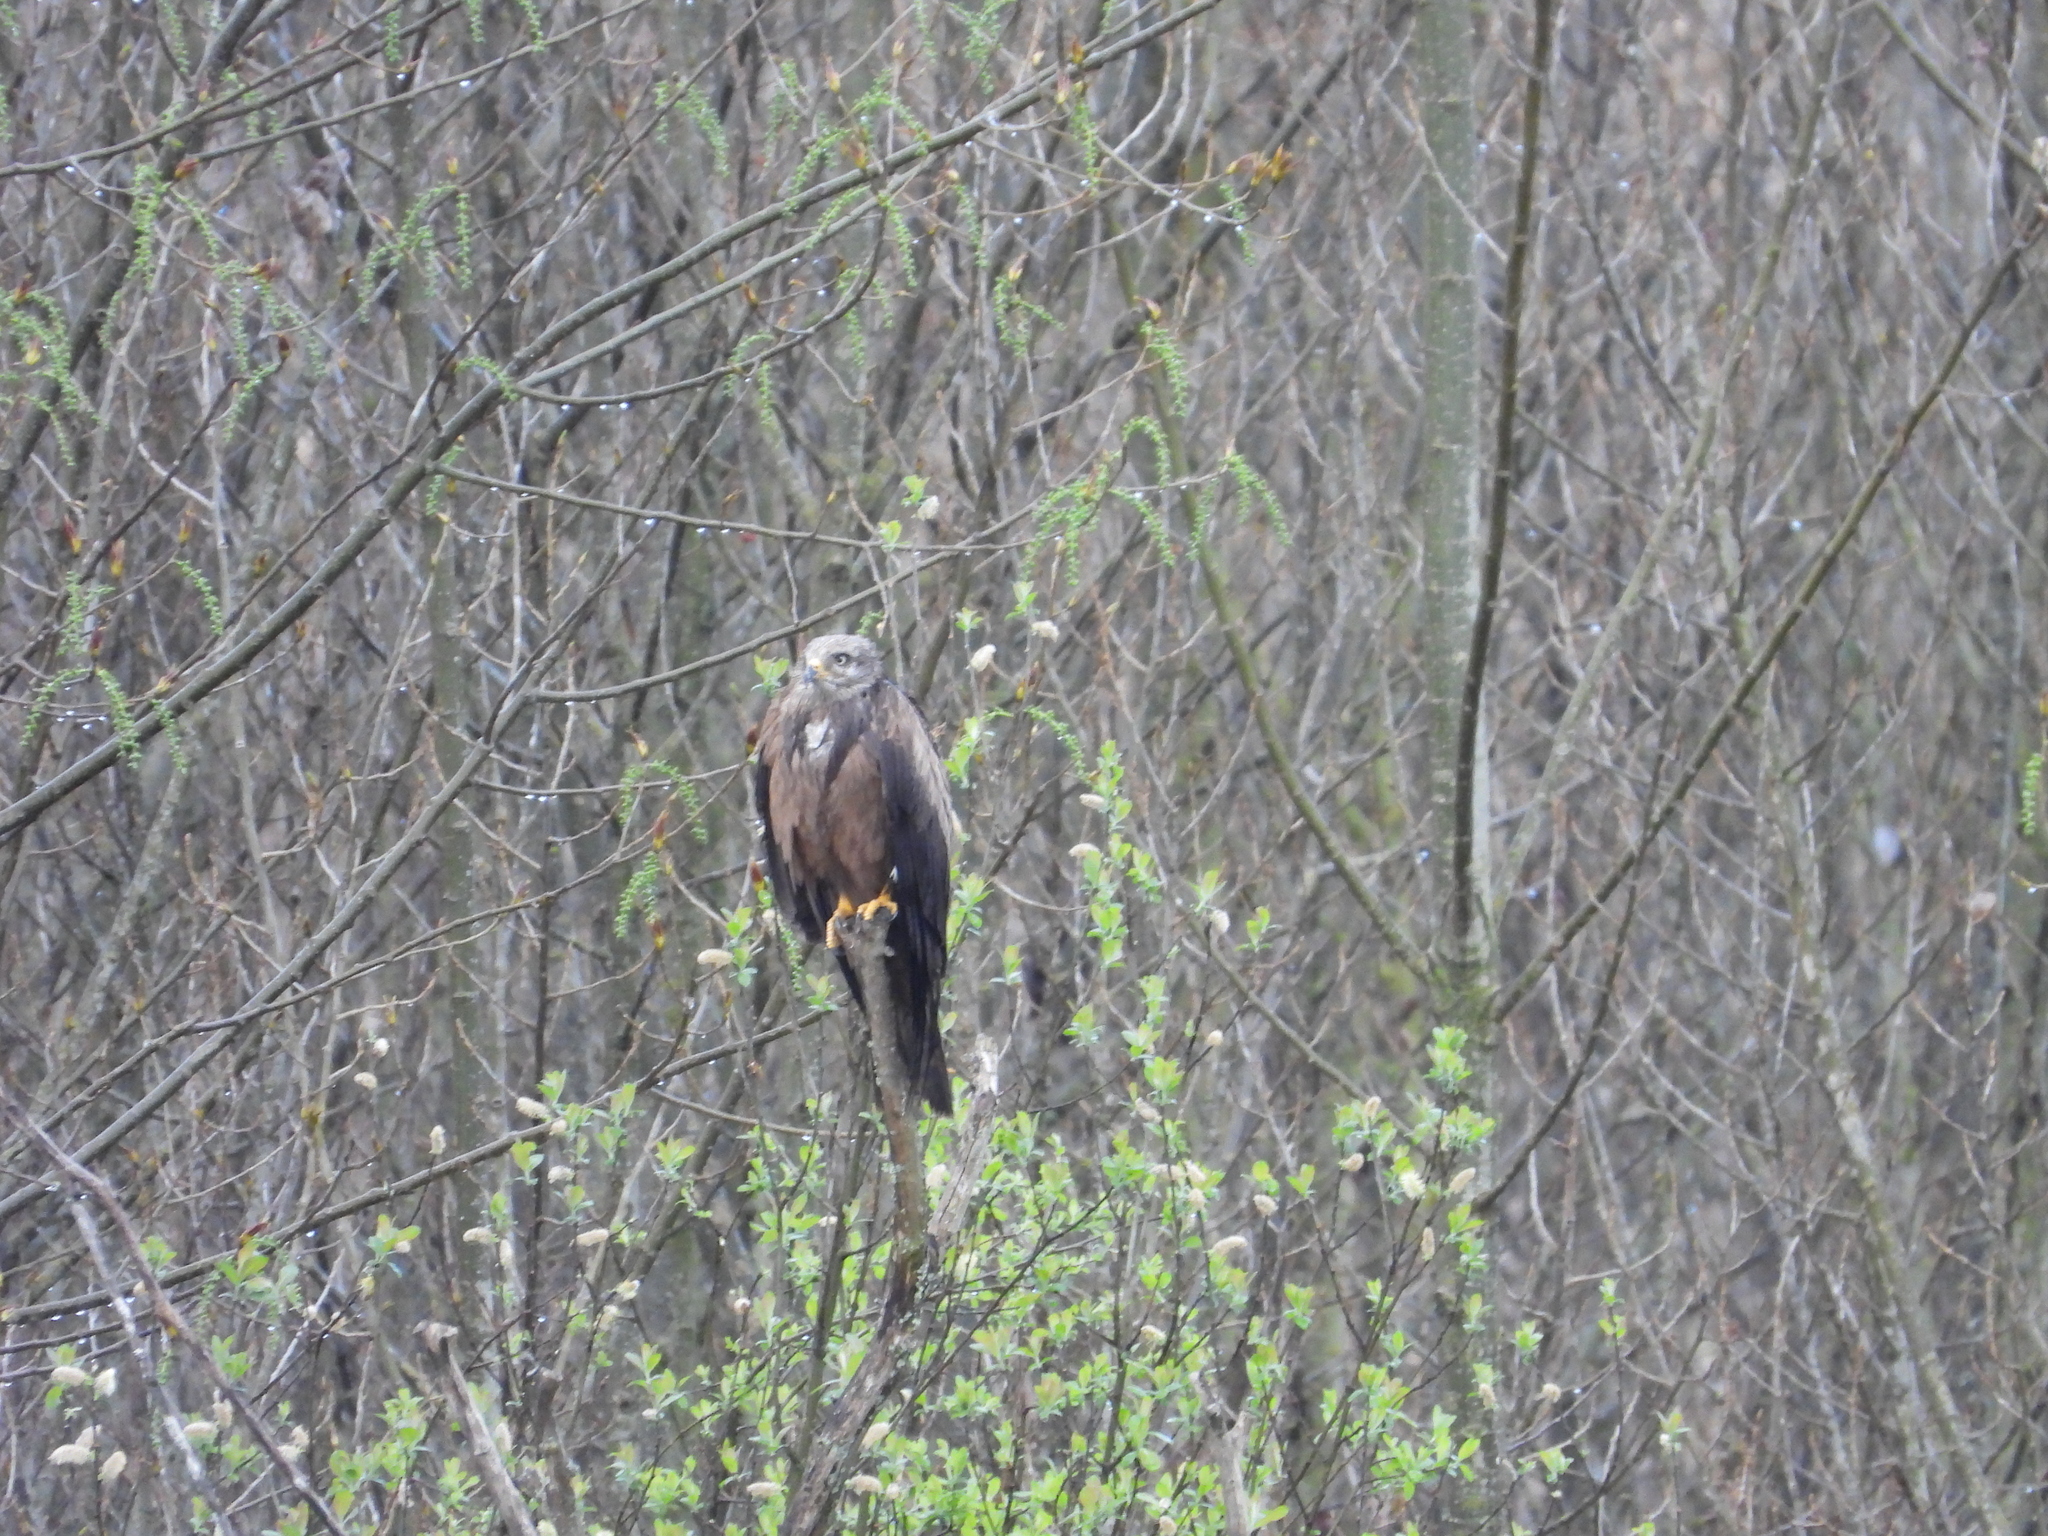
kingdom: Animalia
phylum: Chordata
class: Aves
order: Accipitriformes
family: Accipitridae
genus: Milvus
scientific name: Milvus migrans
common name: Black kite
